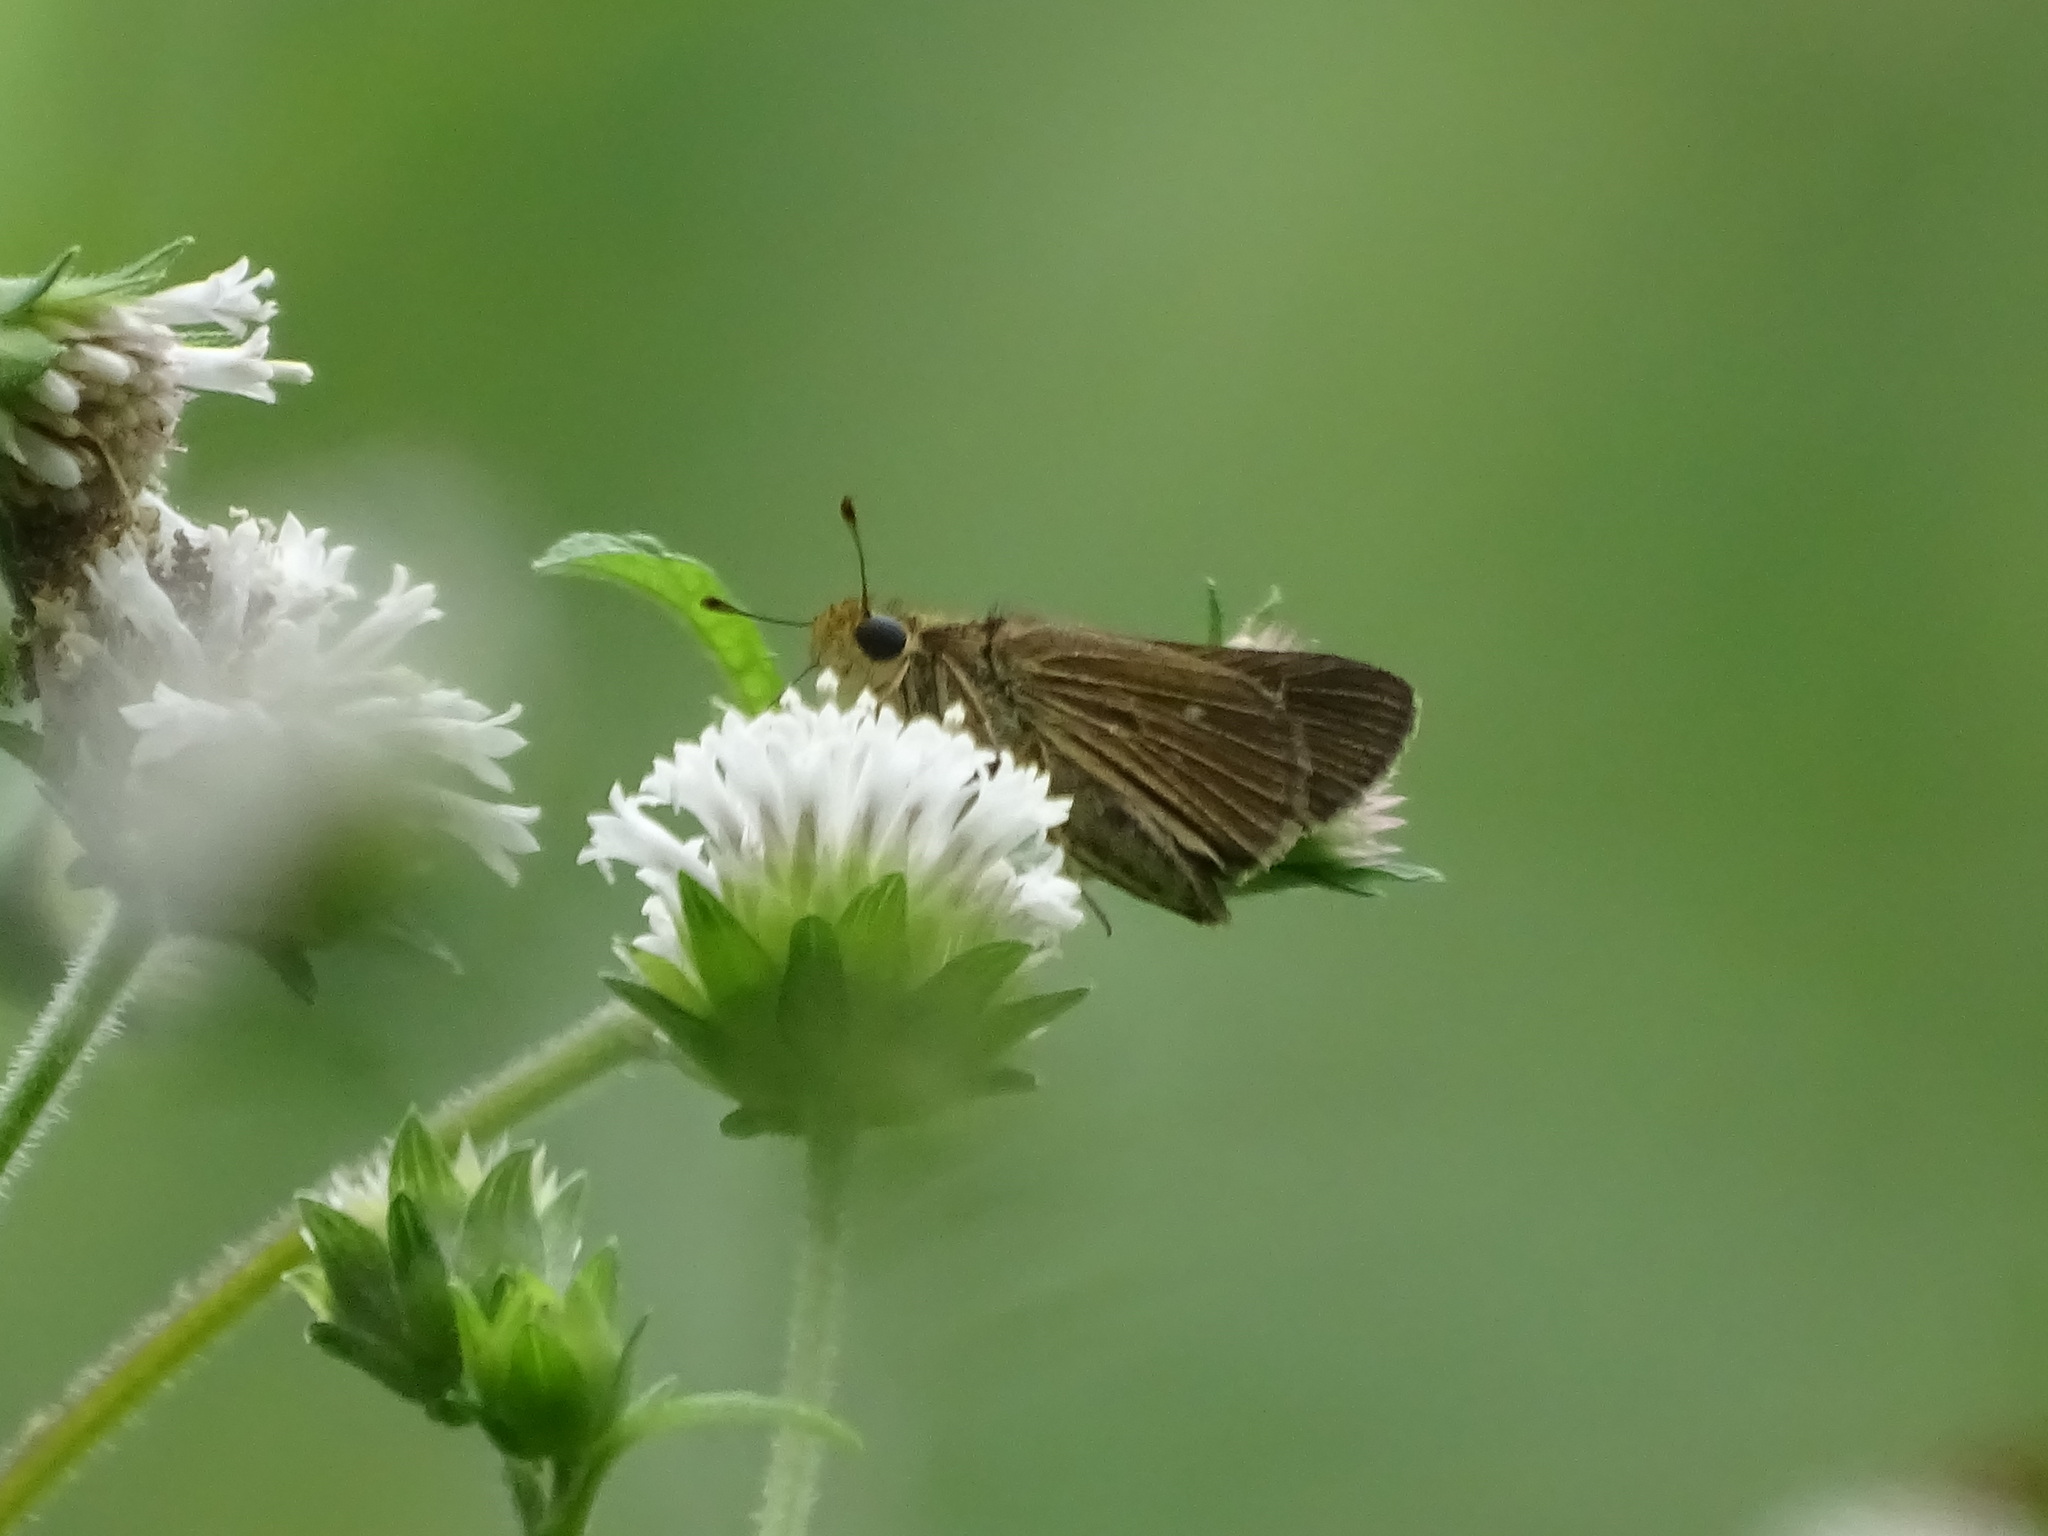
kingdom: Animalia
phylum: Arthropoda
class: Insecta
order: Lepidoptera
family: Hesperiidae
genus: Panoquina
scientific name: Panoquina panoquinoides
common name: Beach skipper
